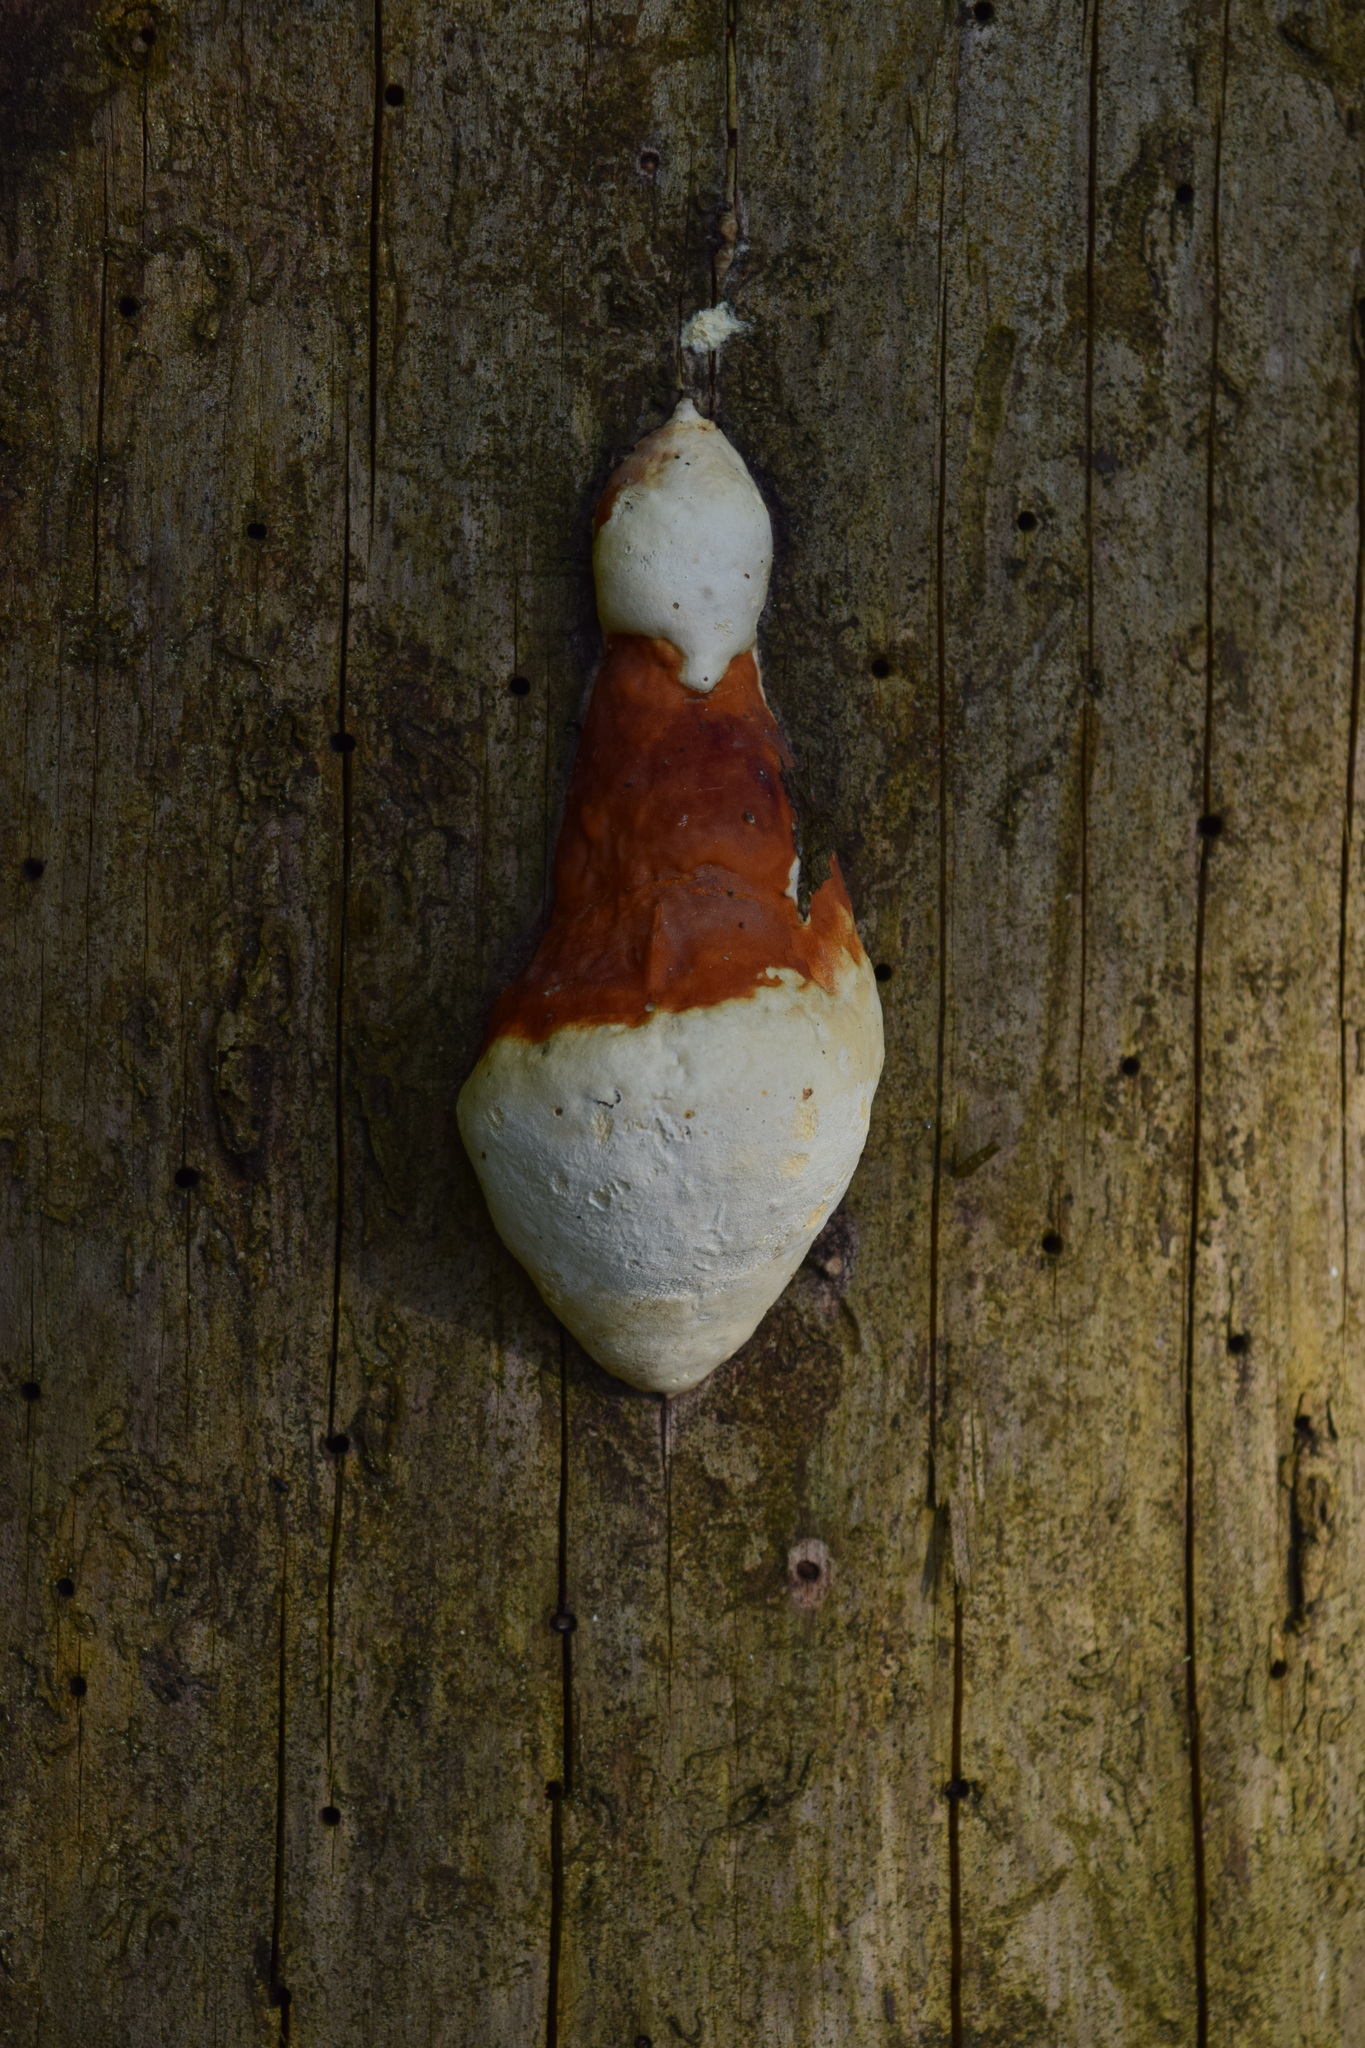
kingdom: Fungi
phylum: Basidiomycota
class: Agaricomycetes
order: Polyporales
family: Fomitopsidaceae
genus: Fomitopsis
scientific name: Fomitopsis pinicola
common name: Red-belted bracket
